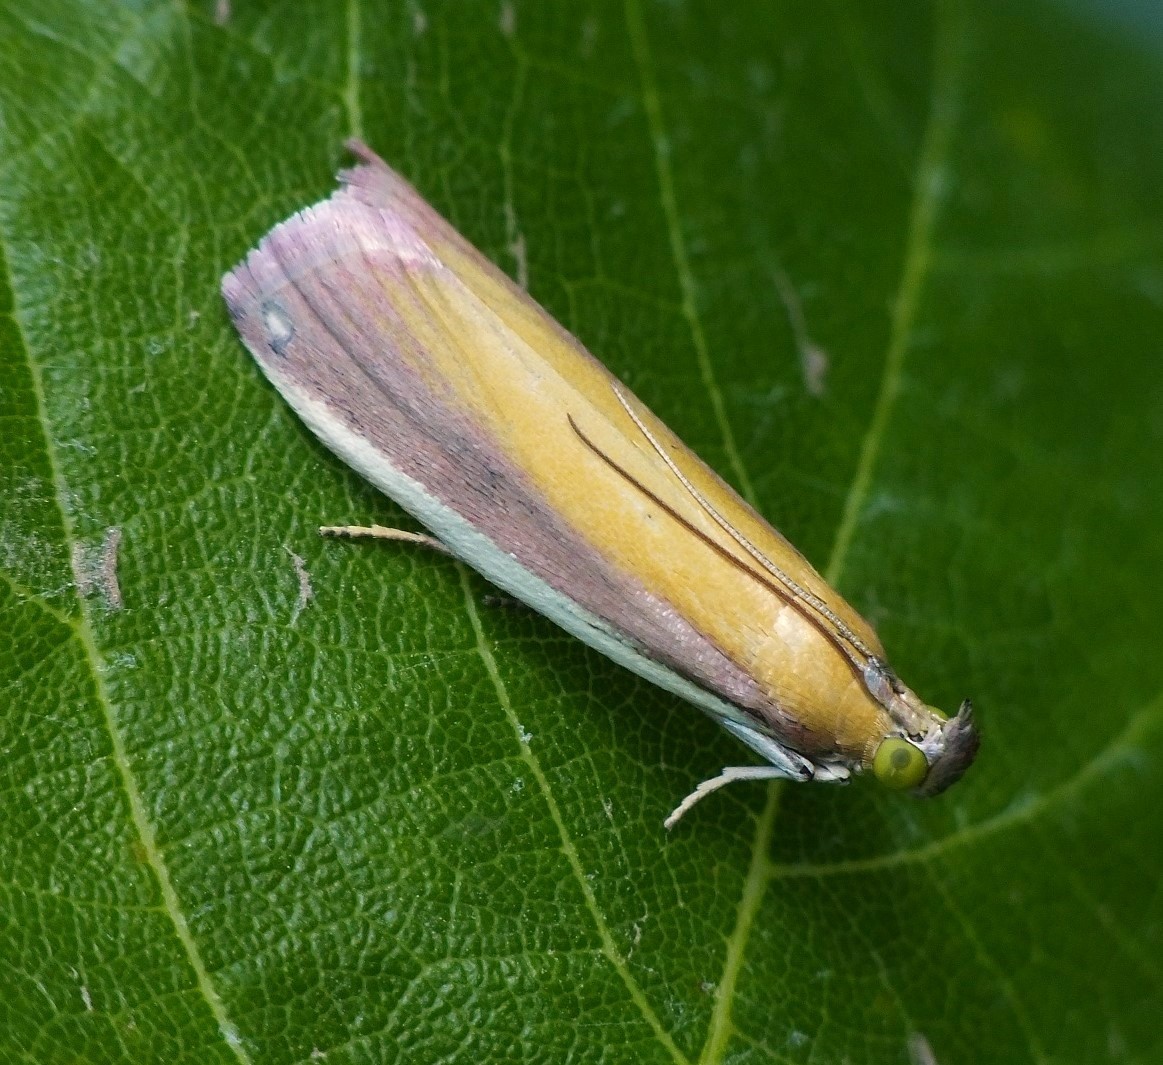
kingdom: Animalia
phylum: Arthropoda
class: Insecta
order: Lepidoptera
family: Pyralidae
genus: Oncocera
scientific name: Oncocera semirubella
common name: Rosy-striped knot-horn
